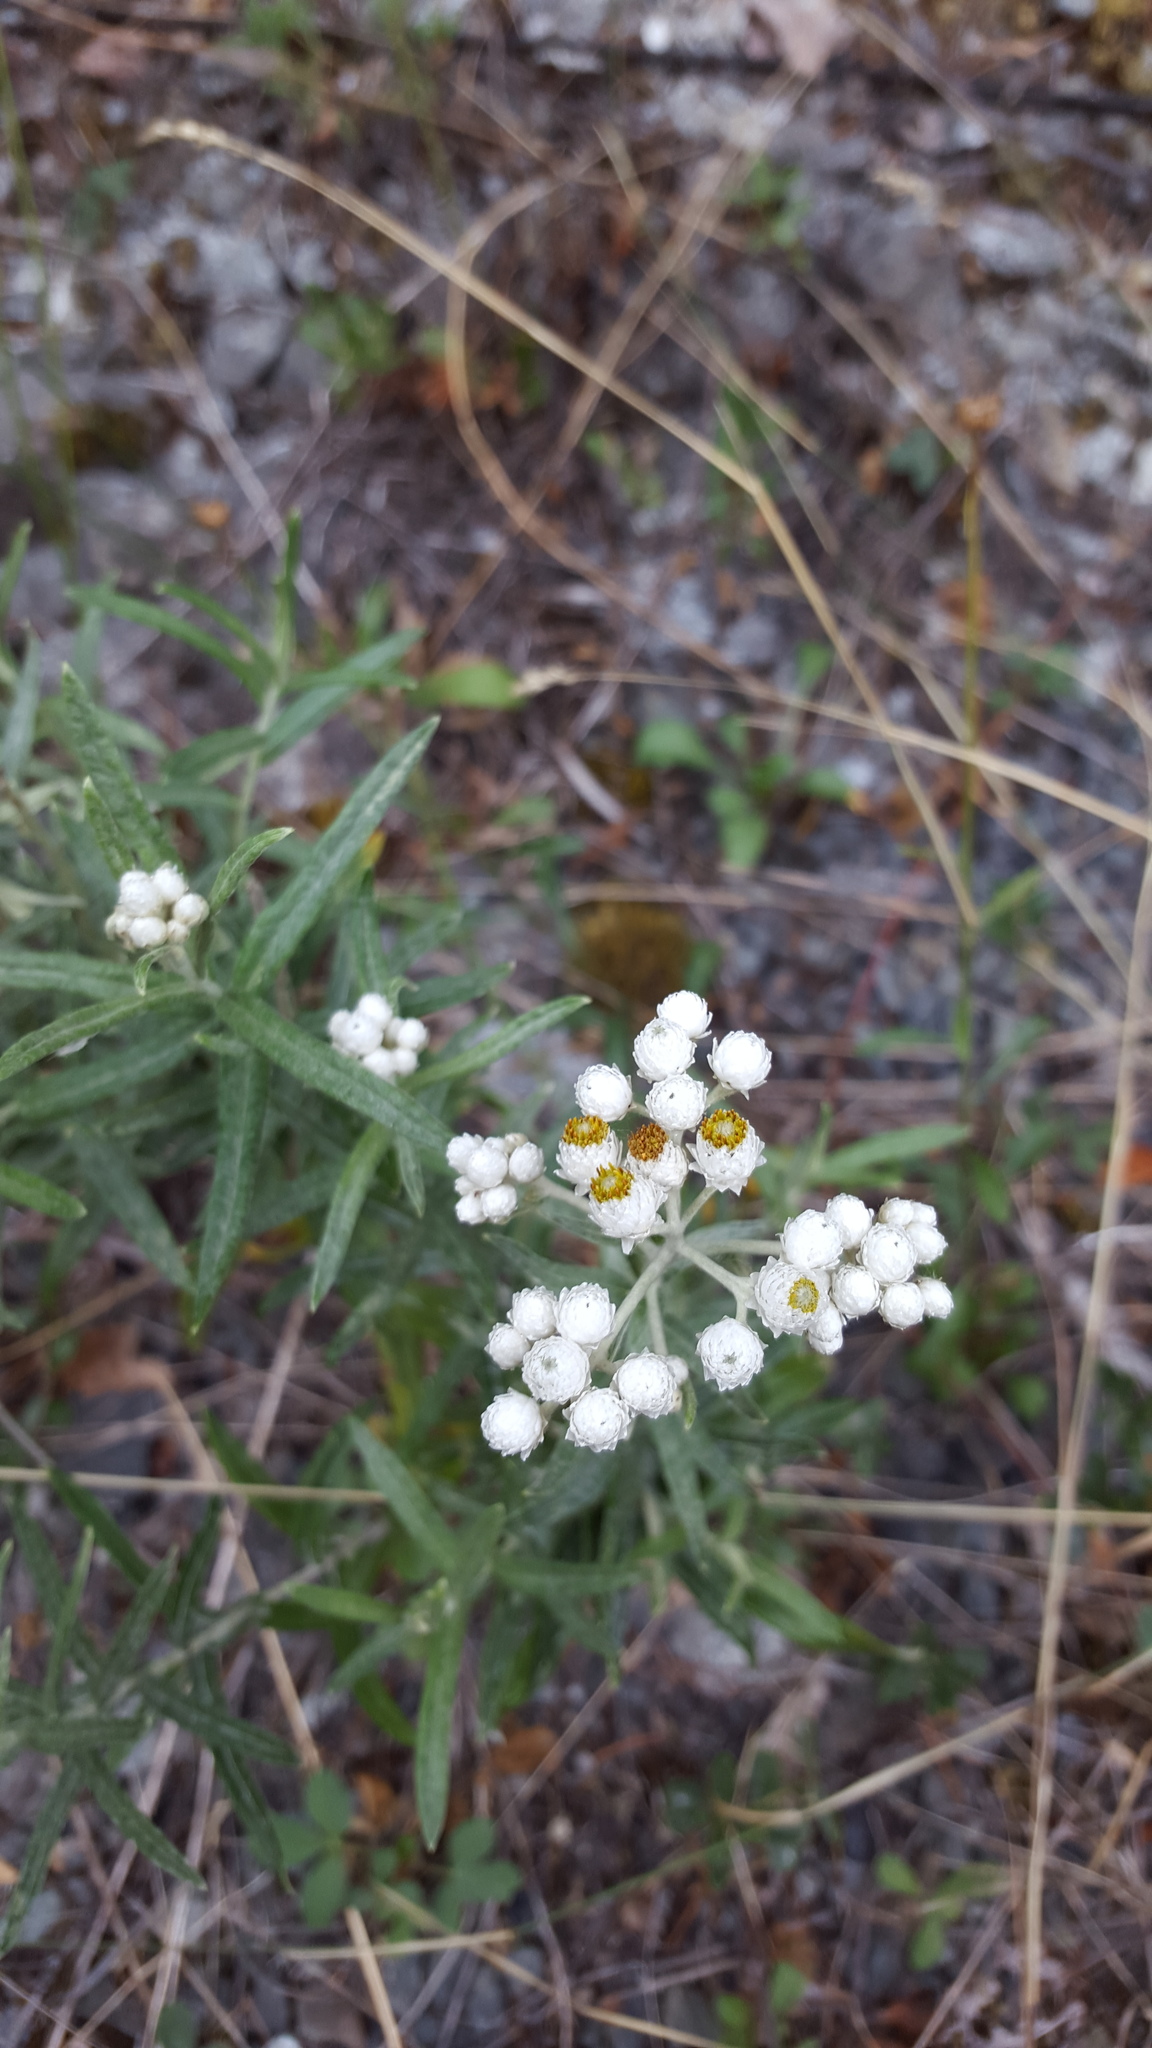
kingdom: Plantae
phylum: Tracheophyta
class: Magnoliopsida
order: Asterales
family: Asteraceae
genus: Anaphalis
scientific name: Anaphalis margaritacea
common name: Pearly everlasting
